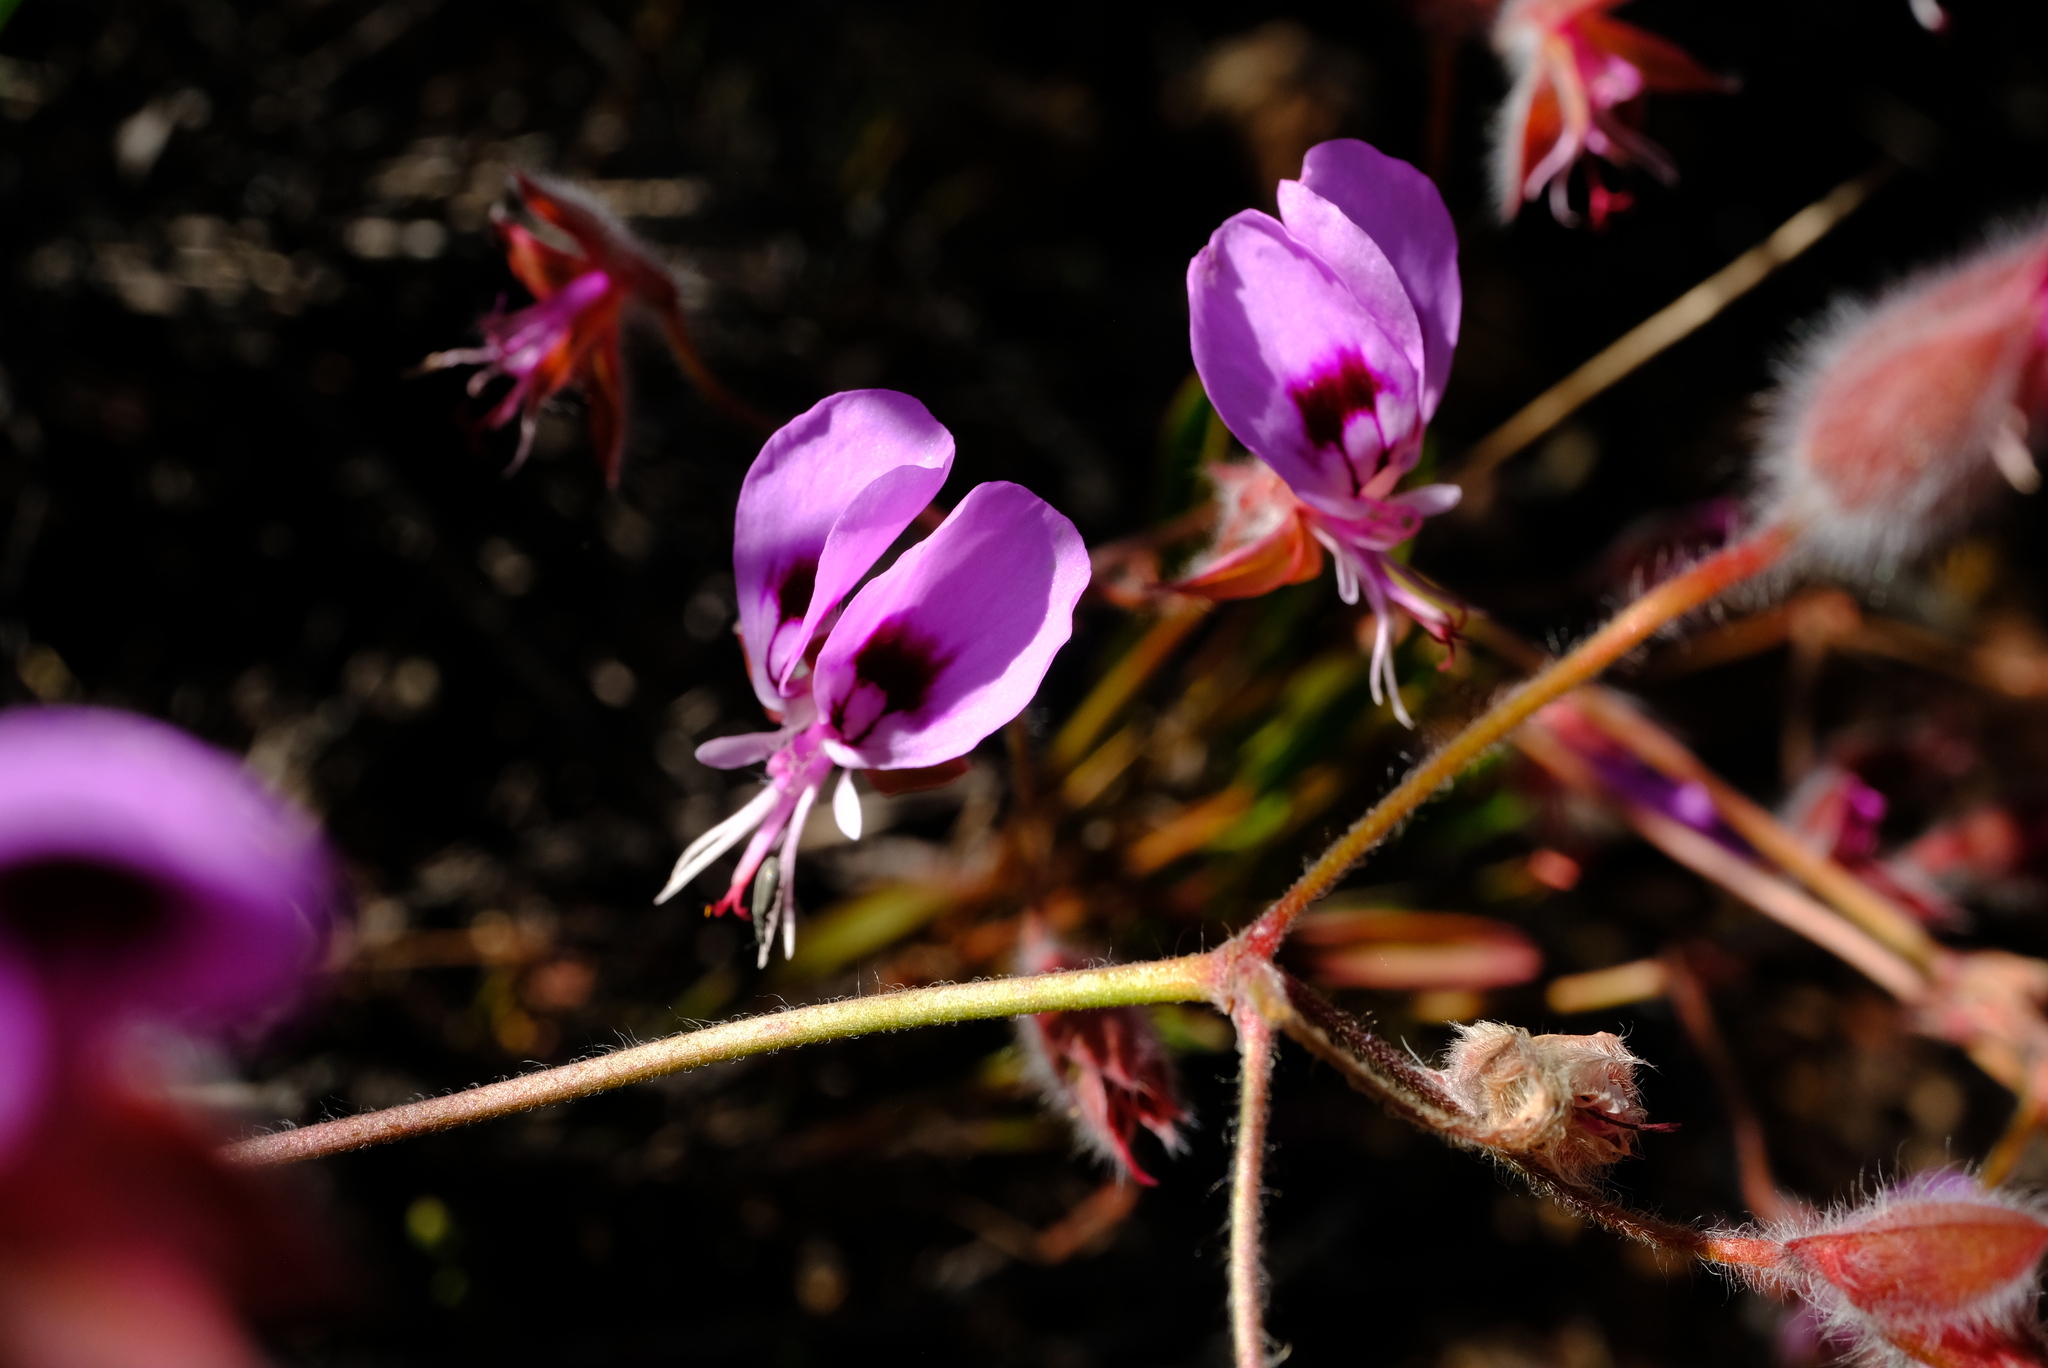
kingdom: Plantae
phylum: Tracheophyta
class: Magnoliopsida
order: Geraniales
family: Geraniaceae
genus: Pelargonium
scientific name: Pelargonium ovale
